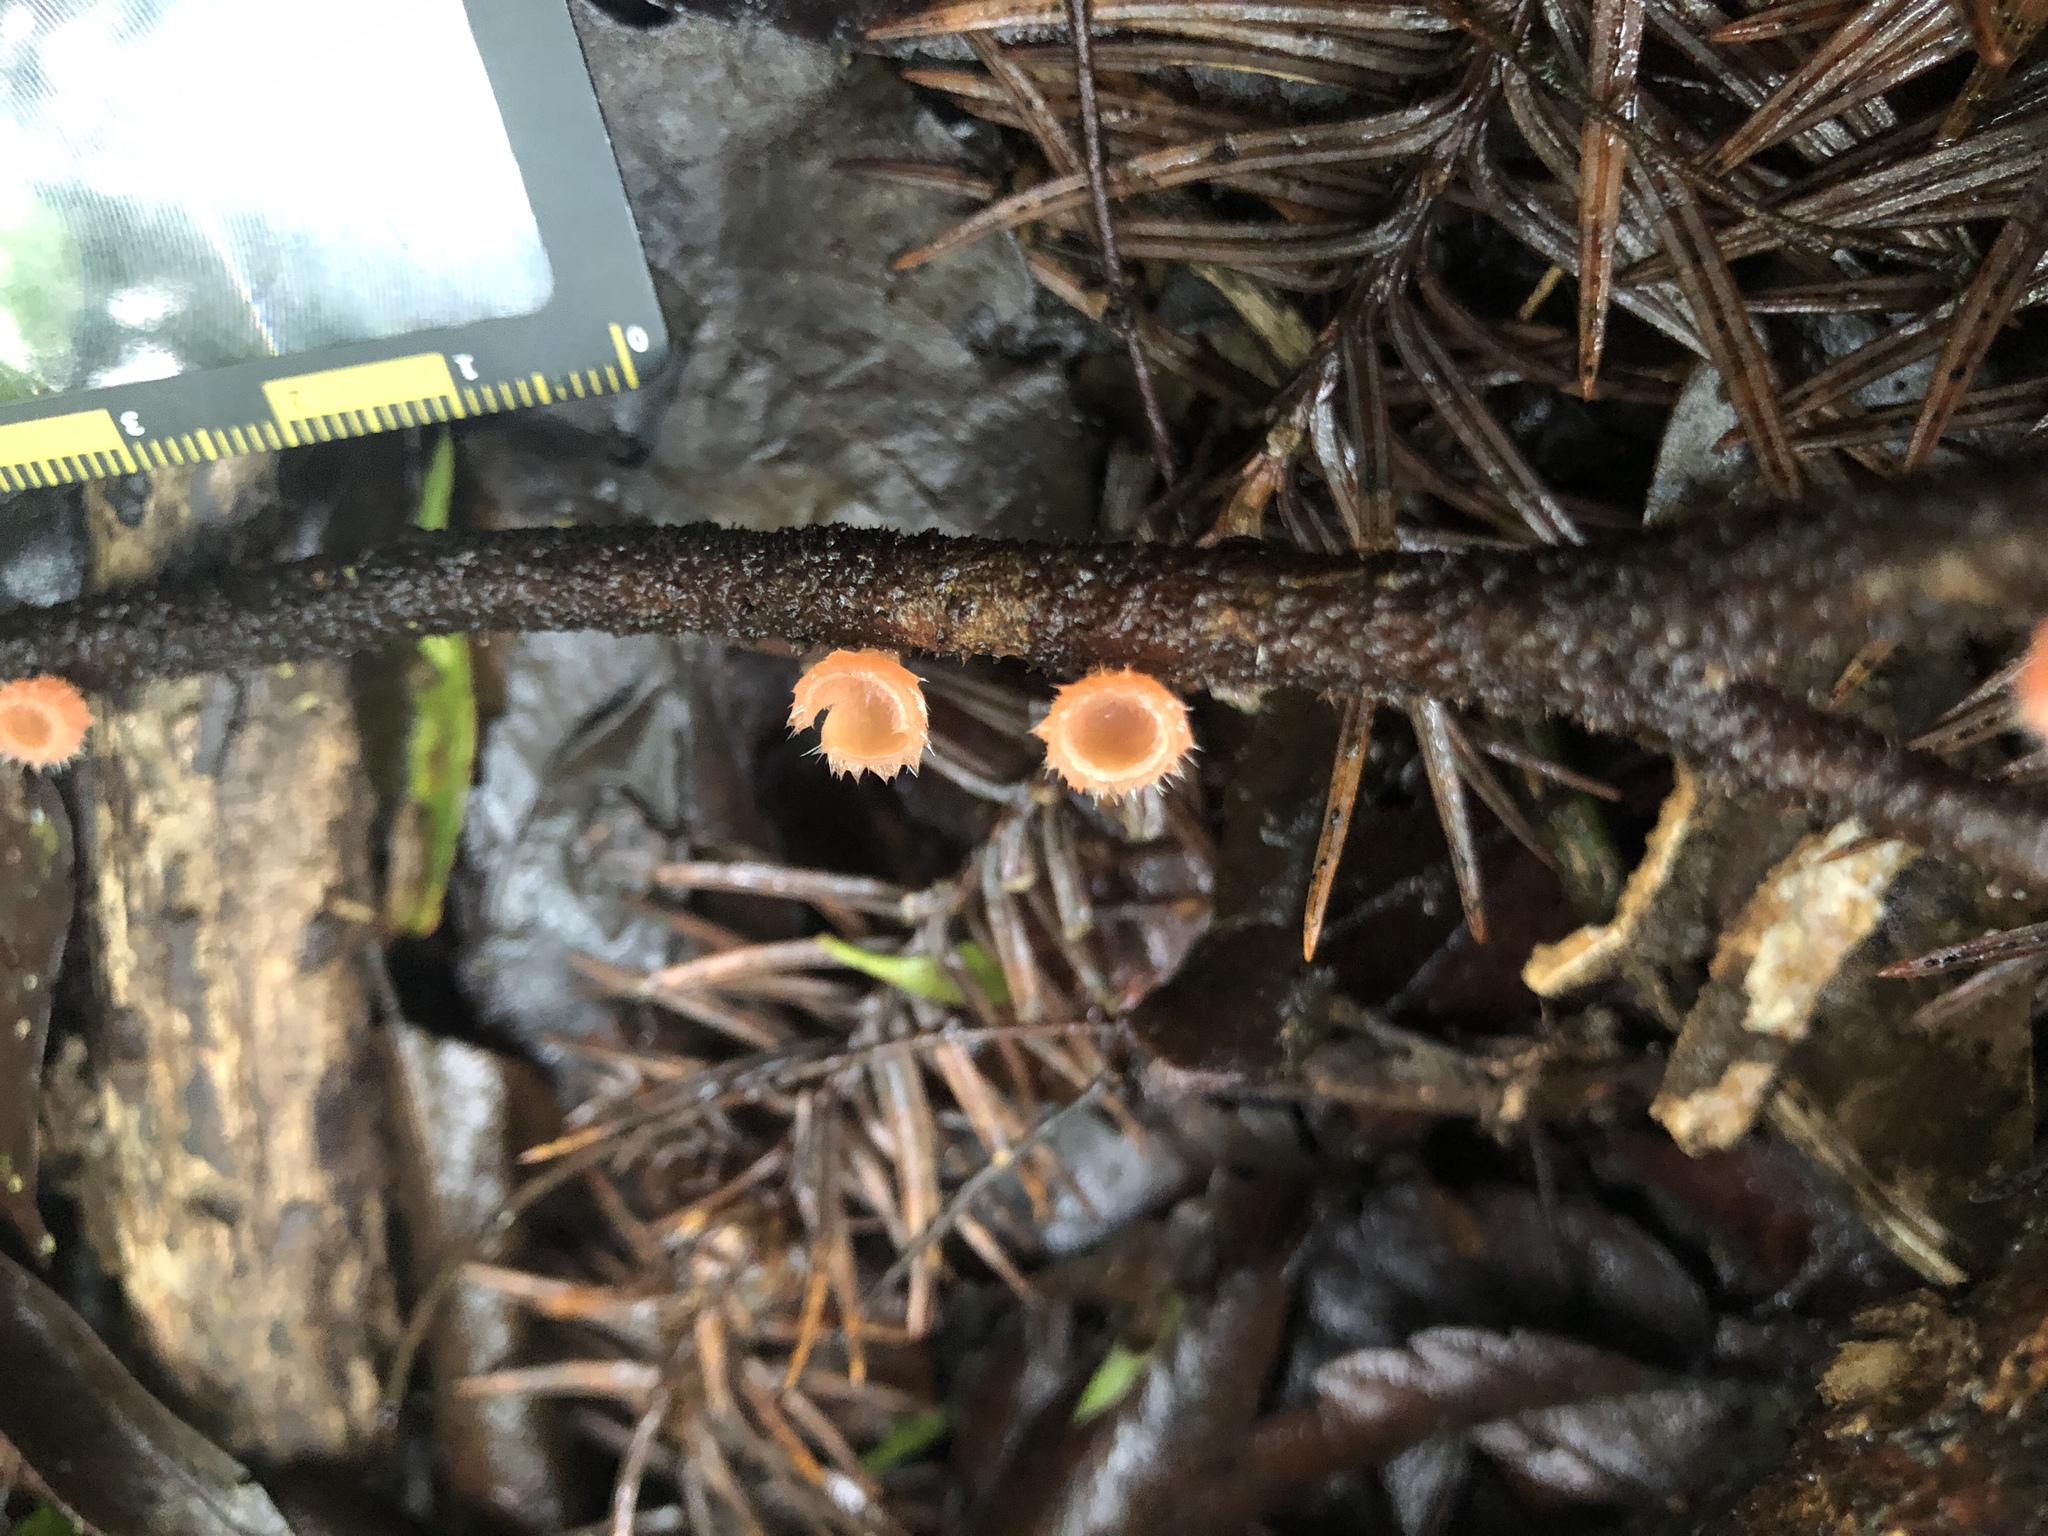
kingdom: Fungi
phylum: Ascomycota
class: Pezizomycetes
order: Pezizales
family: Sarcoscyphaceae
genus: Microstoma
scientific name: Microstoma floccosum
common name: Pink fringed faery cup
